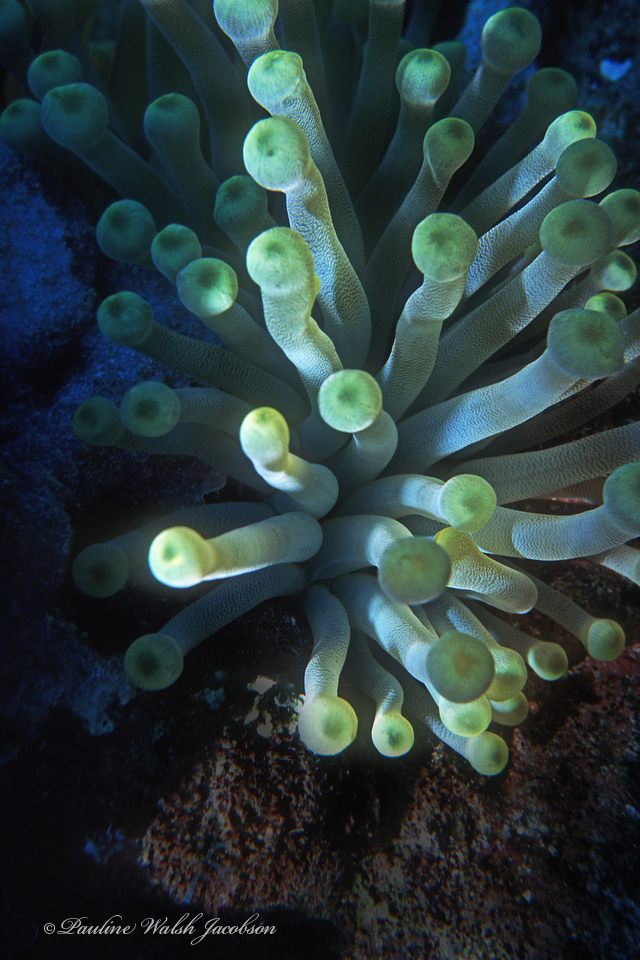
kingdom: Animalia
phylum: Cnidaria
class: Anthozoa
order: Actiniaria
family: Actiniidae
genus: Condylactis
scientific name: Condylactis gigantea
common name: Giant caribbean anemone
